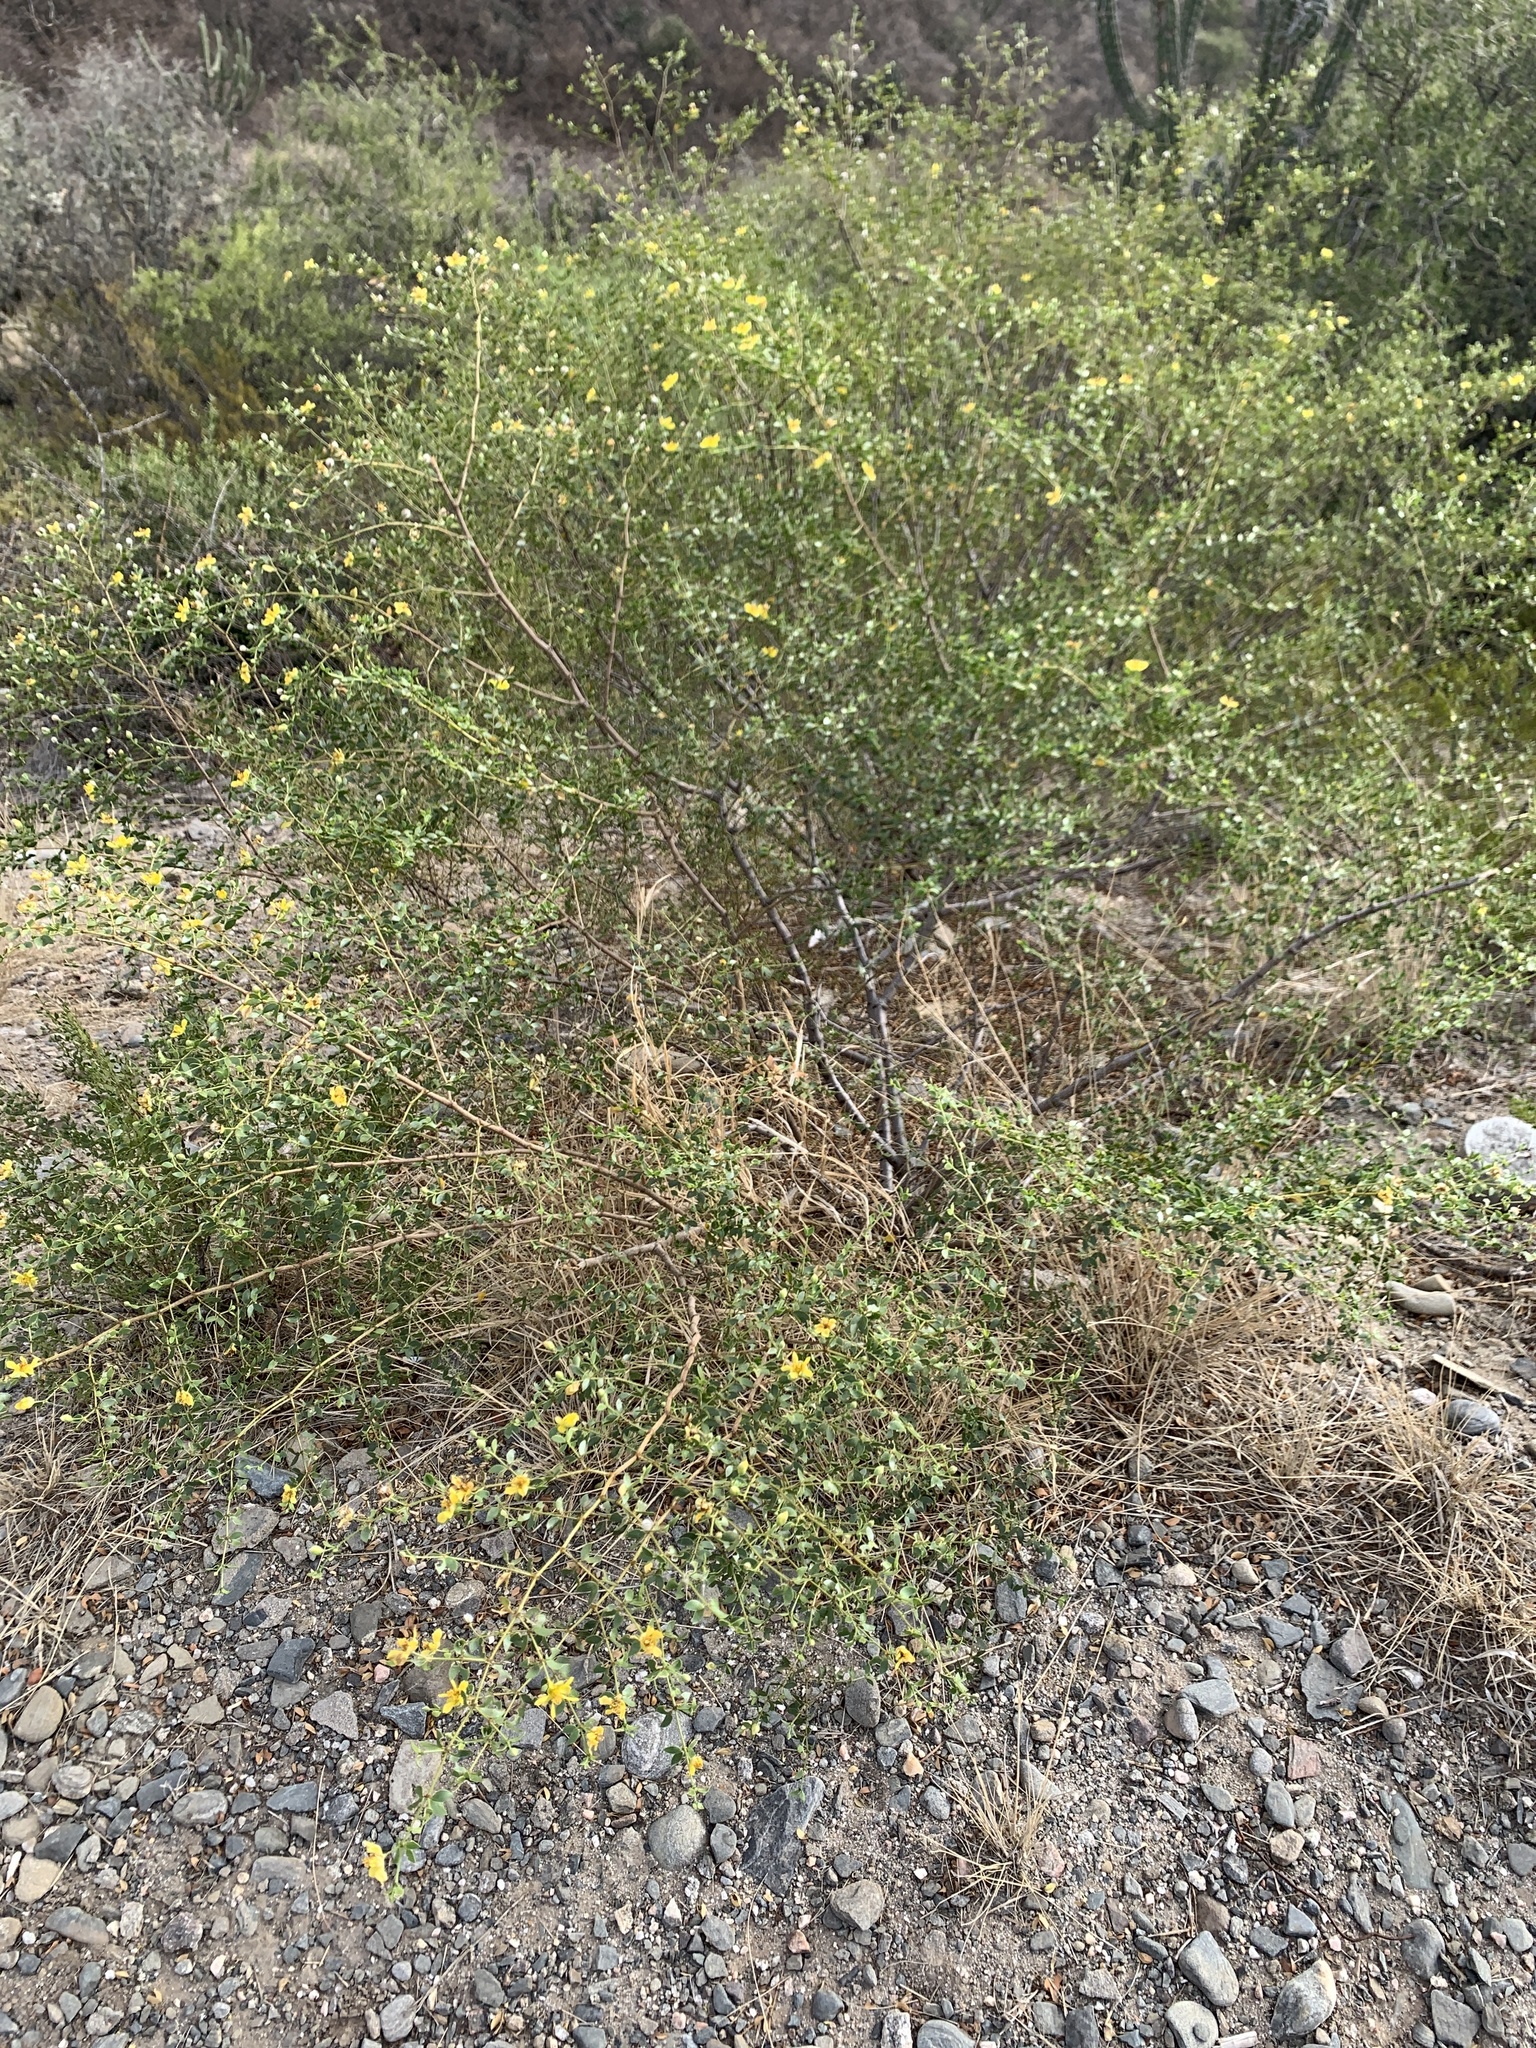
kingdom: Plantae
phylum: Tracheophyta
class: Magnoliopsida
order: Zygophyllales
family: Zygophyllaceae
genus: Larrea
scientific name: Larrea divaricata
